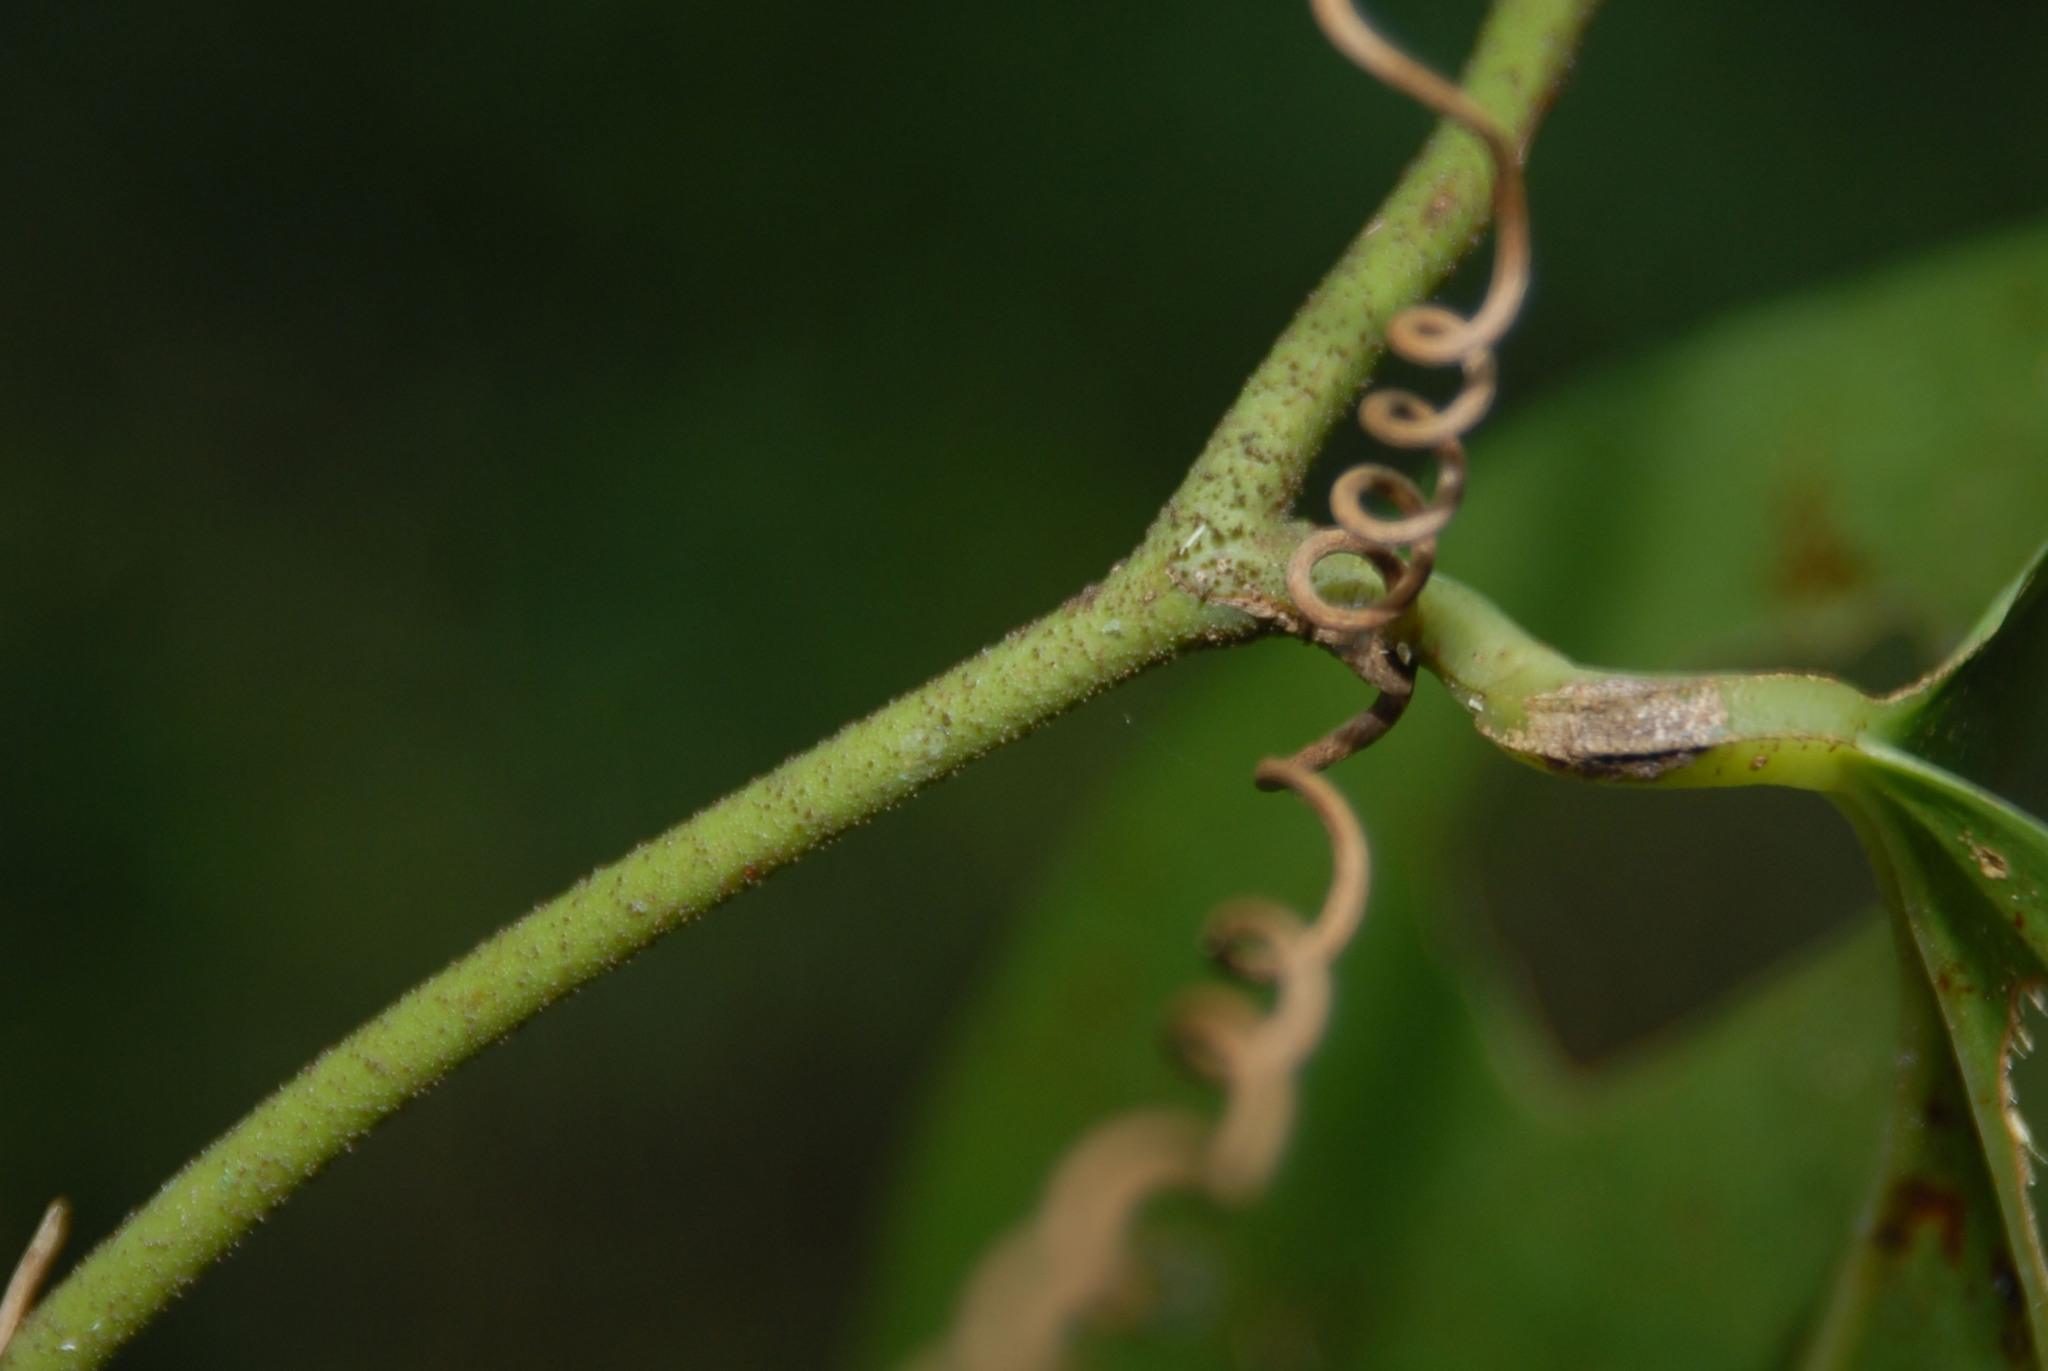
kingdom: Plantae
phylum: Tracheophyta
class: Liliopsida
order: Liliales
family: Smilacaceae
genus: Smilax
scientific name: Smilax aspericaulis
